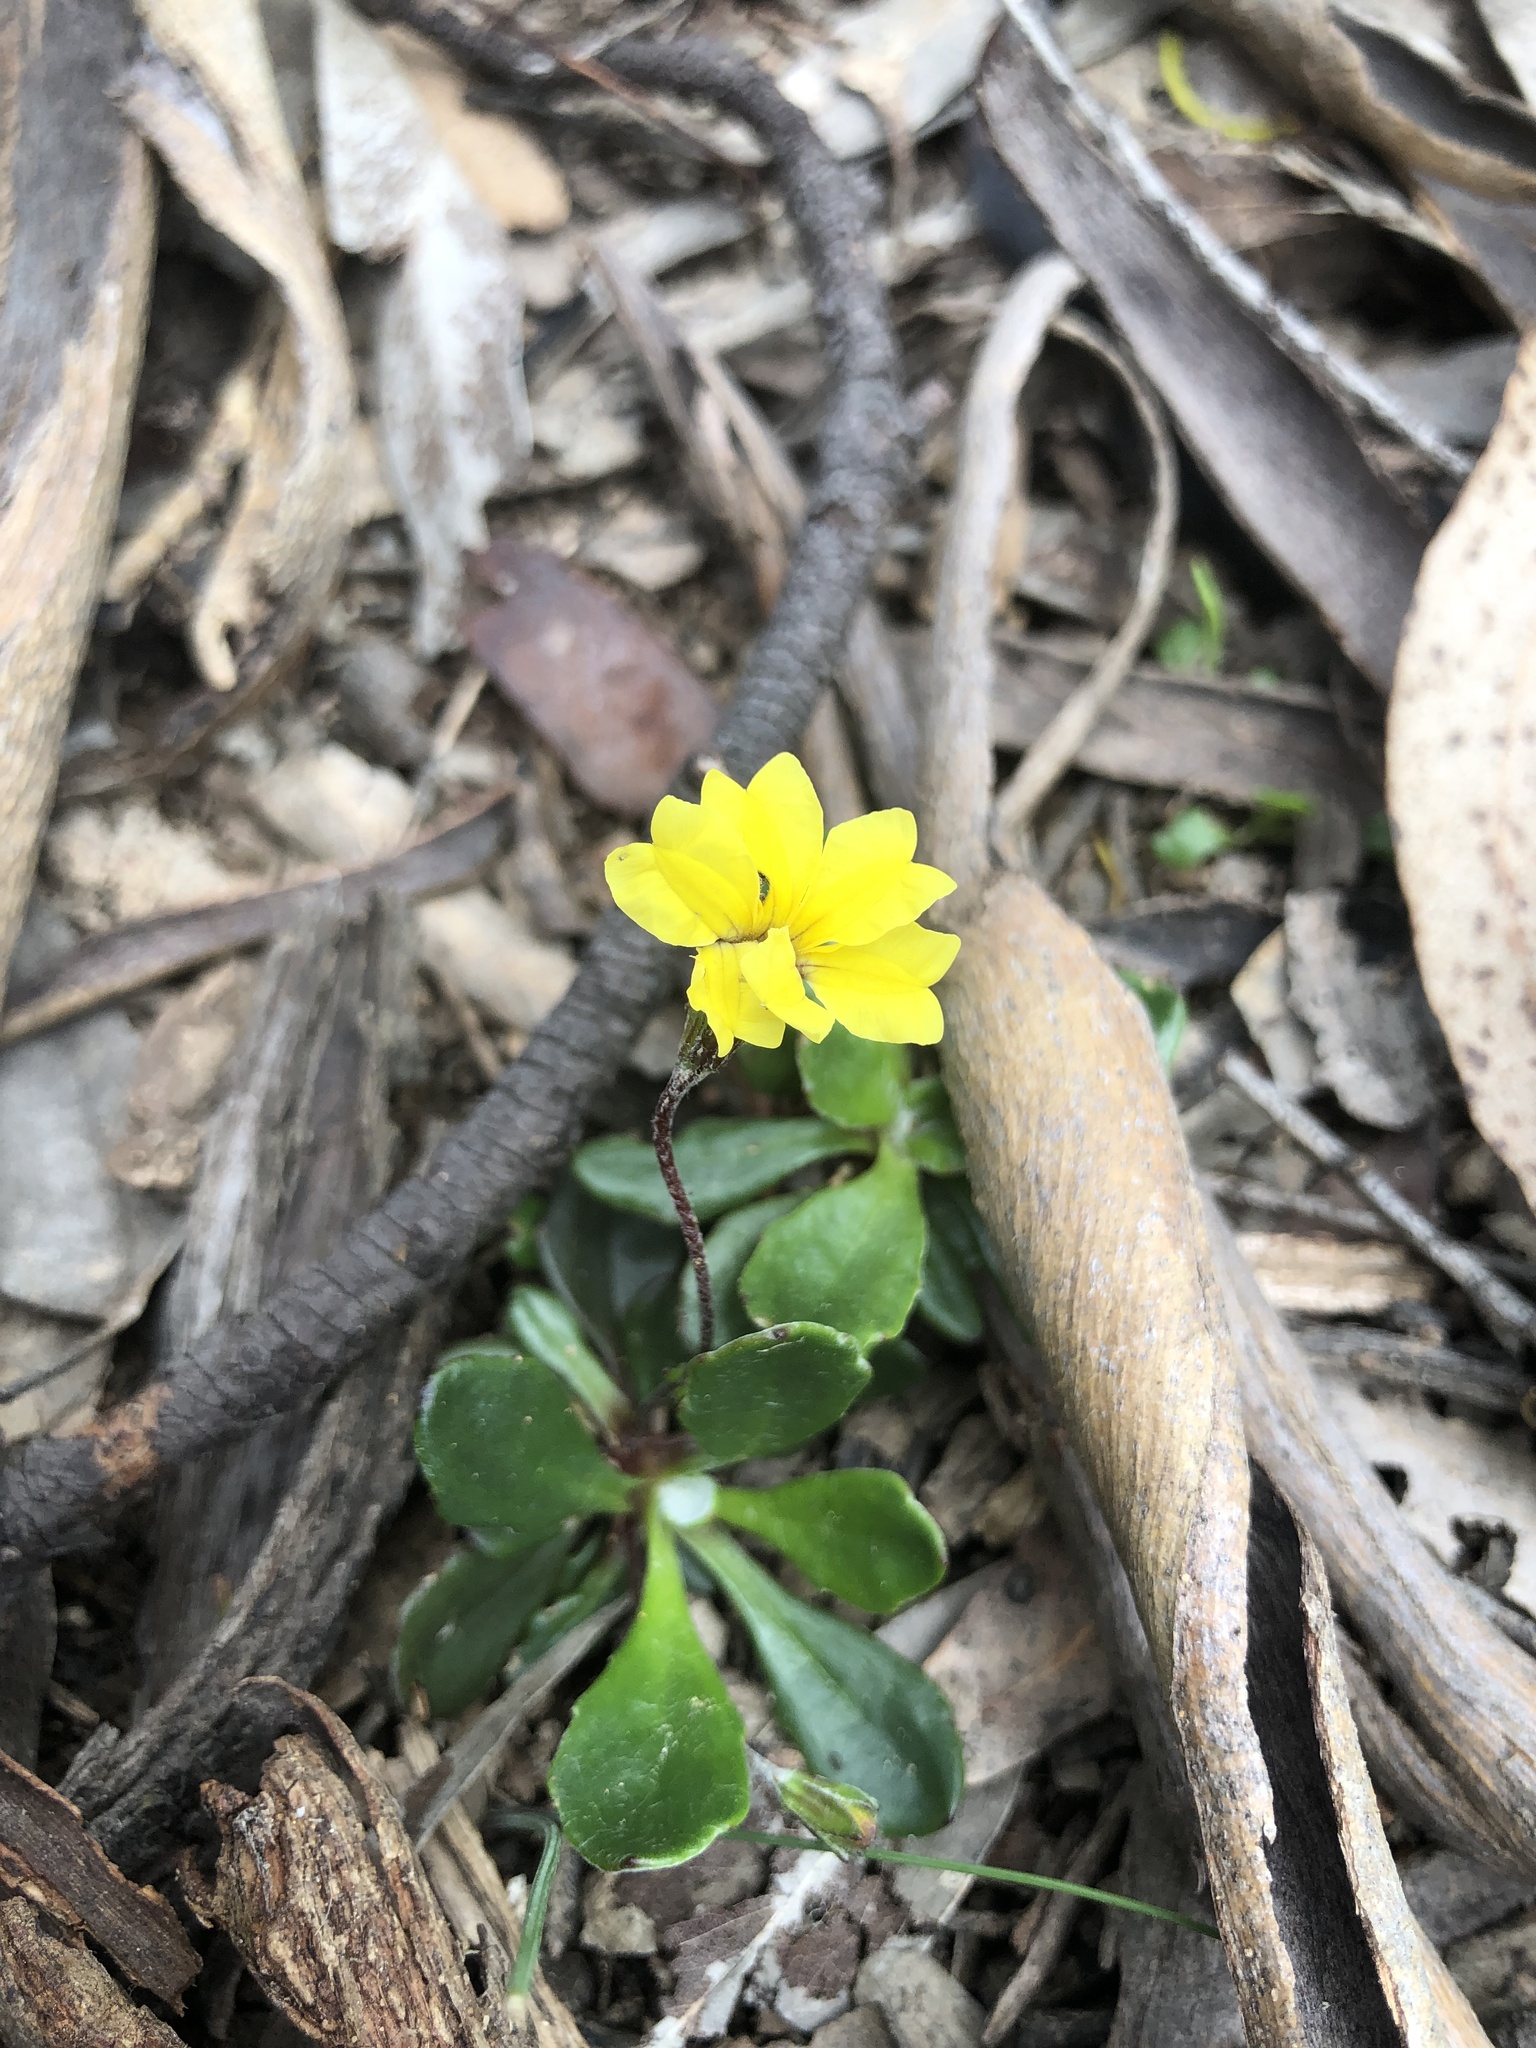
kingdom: Plantae
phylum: Tracheophyta
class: Magnoliopsida
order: Asterales
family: Goodeniaceae
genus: Goodenia
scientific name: Goodenia blackiana
